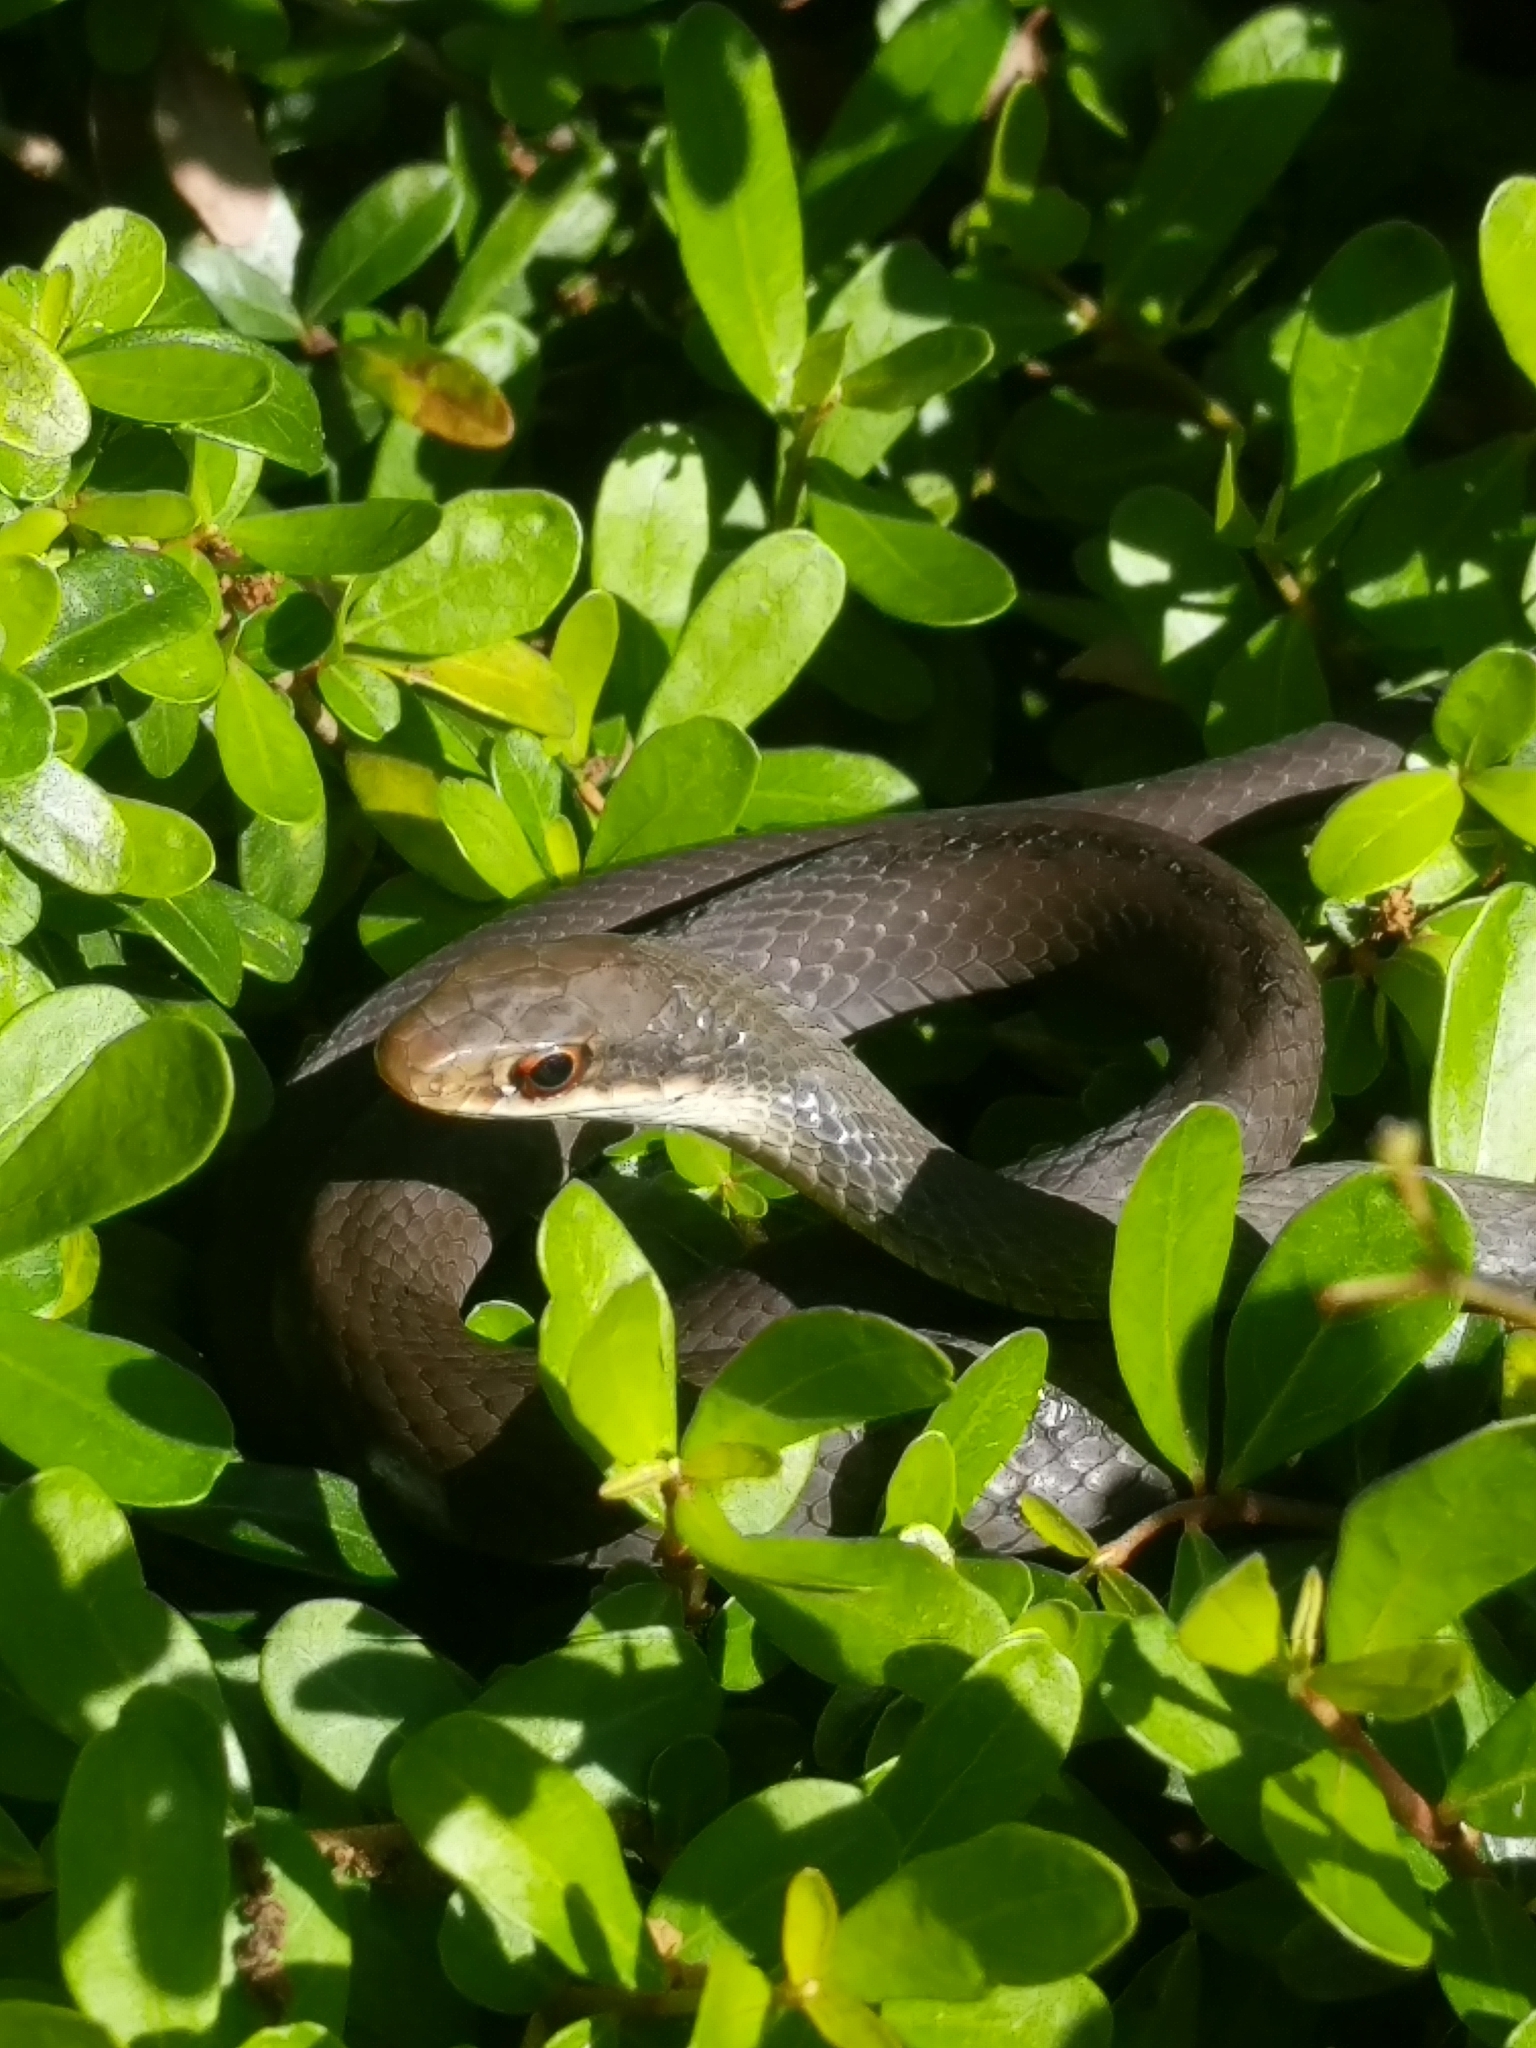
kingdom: Animalia
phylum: Chordata
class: Squamata
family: Colubridae
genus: Coluber
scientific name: Coluber constrictor
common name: Eastern racer
